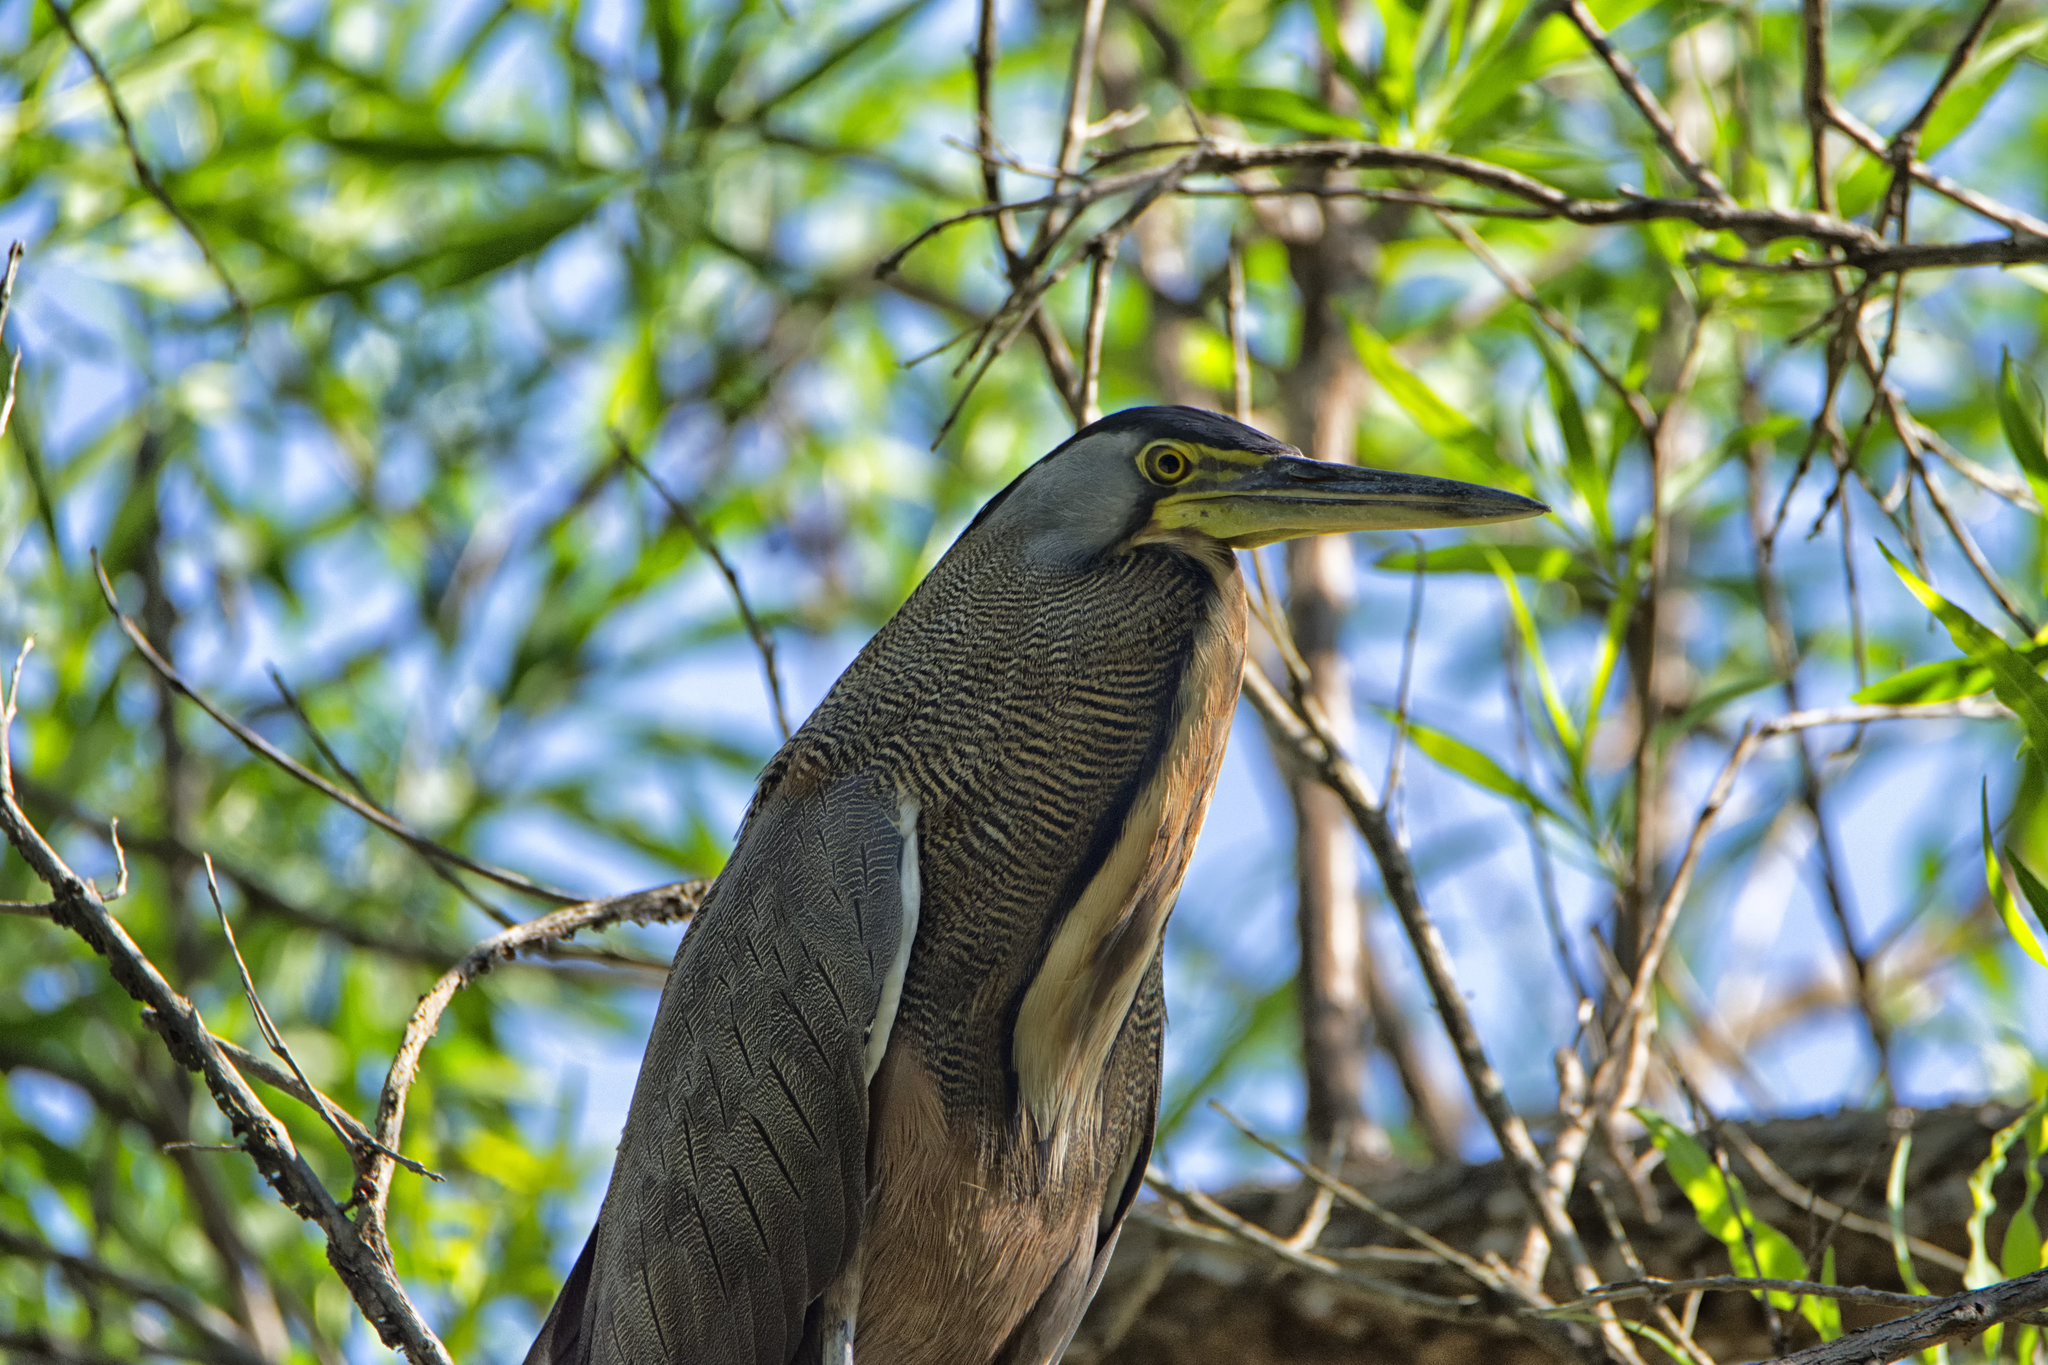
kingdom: Animalia
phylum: Chordata
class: Aves
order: Pelecaniformes
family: Ardeidae
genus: Tigrisoma
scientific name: Tigrisoma mexicanum
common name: Bare-throated tiger-heron
